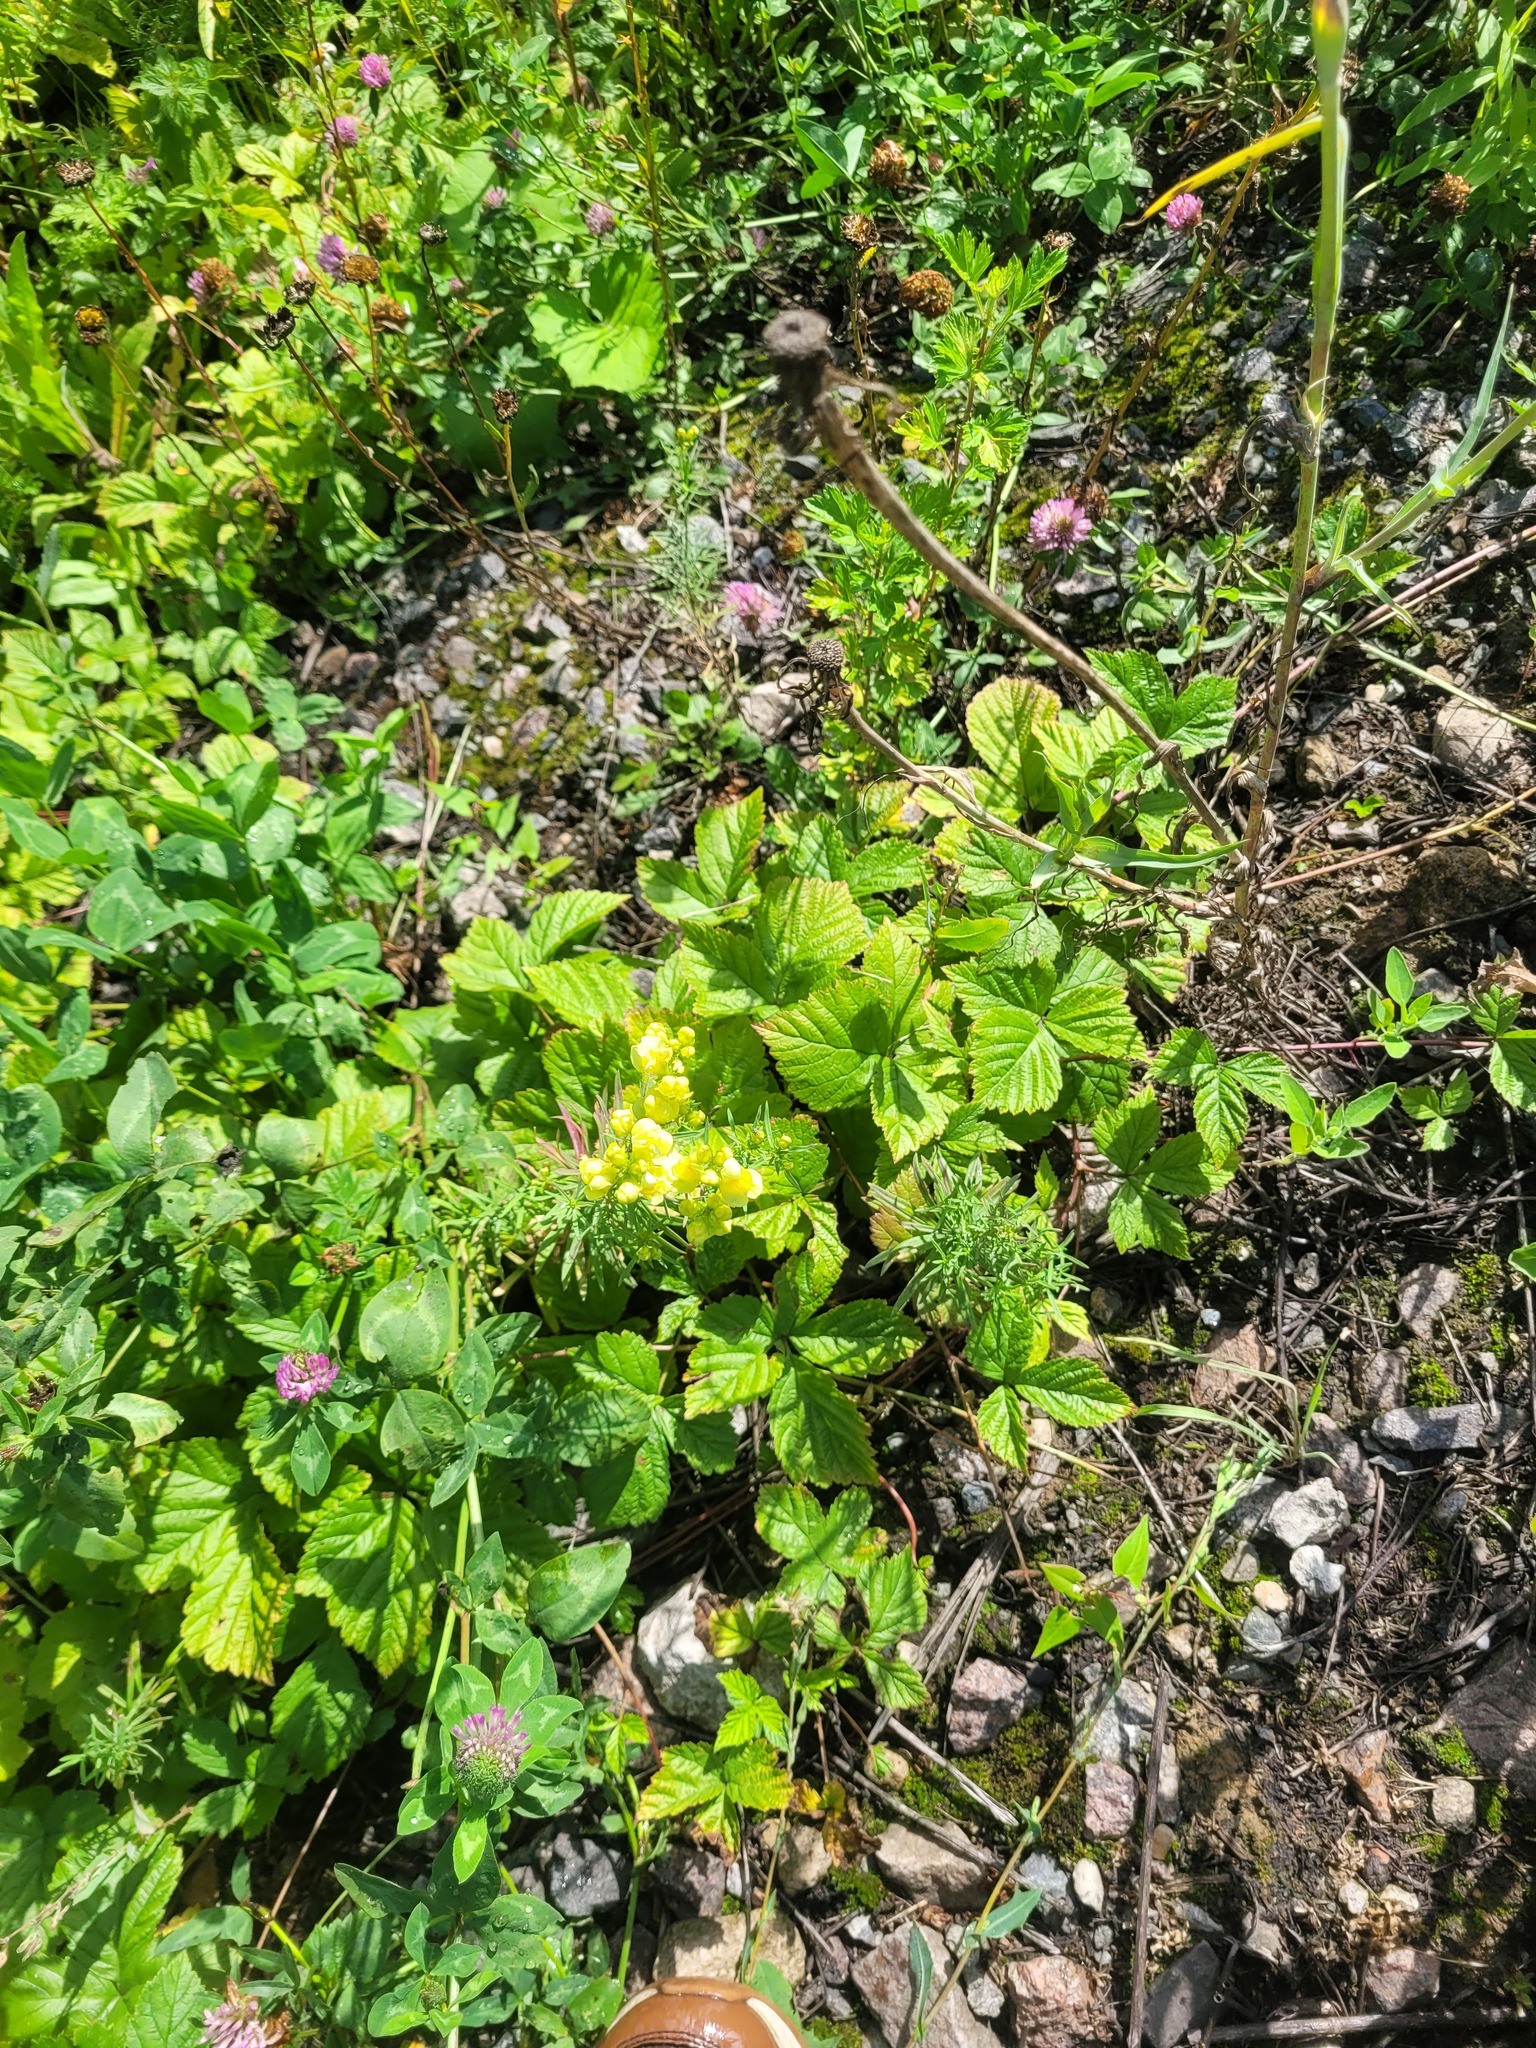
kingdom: Plantae
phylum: Tracheophyta
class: Magnoliopsida
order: Lamiales
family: Plantaginaceae
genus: Linaria
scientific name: Linaria vulgaris
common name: Butter and eggs
